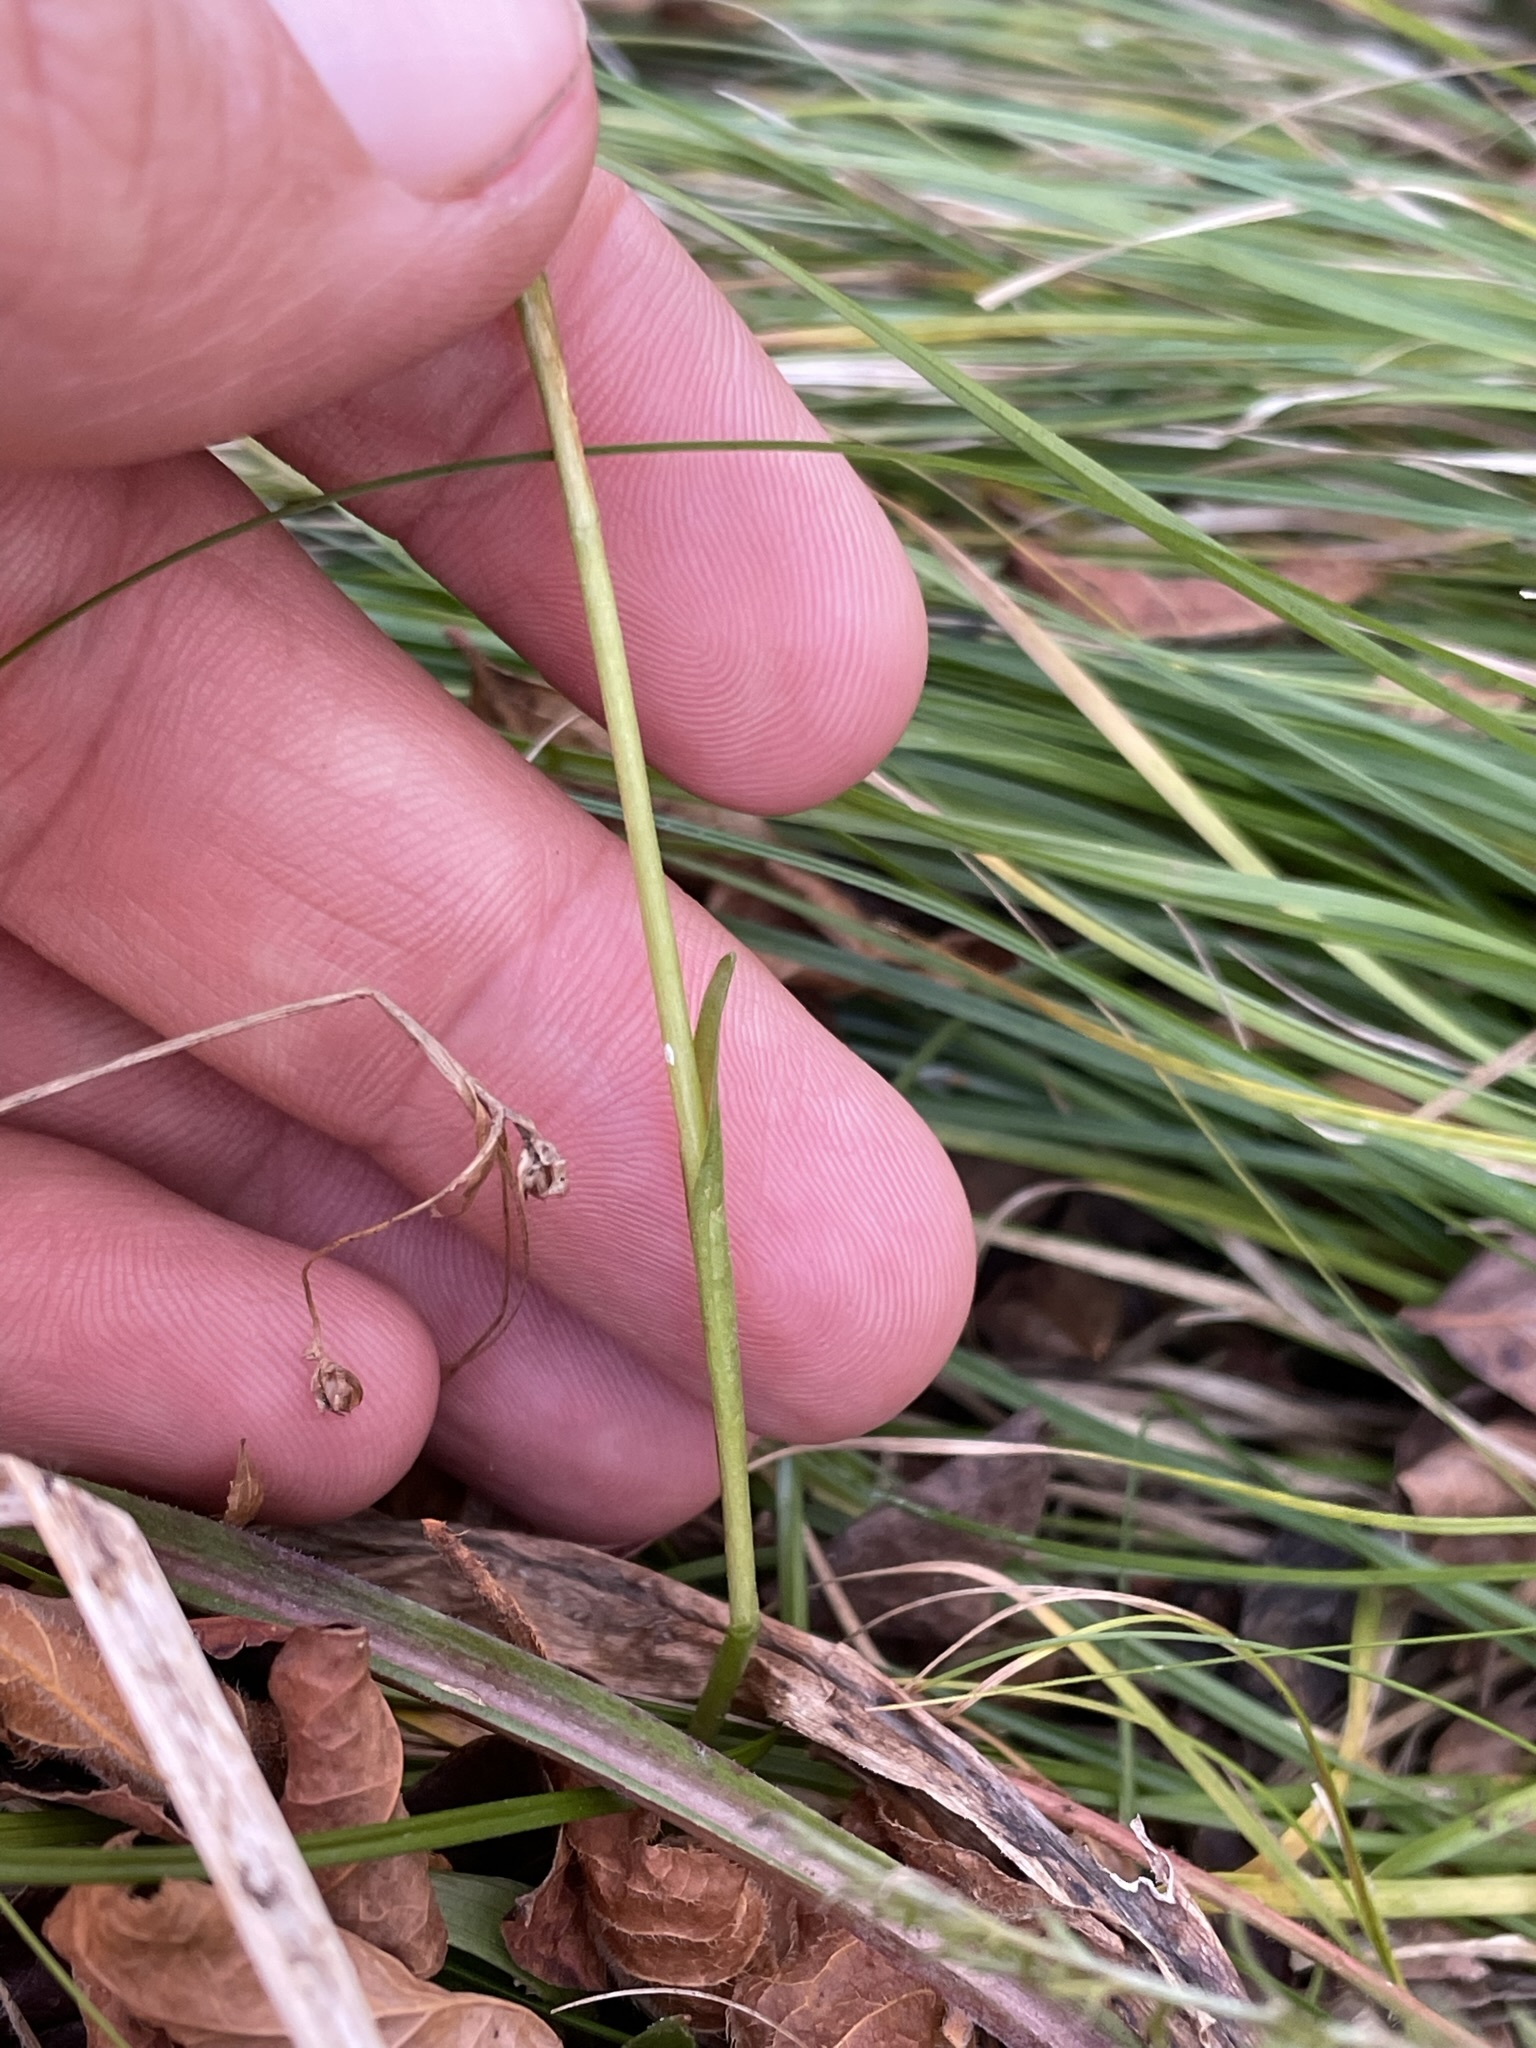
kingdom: Plantae
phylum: Tracheophyta
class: Liliopsida
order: Asparagales
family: Orchidaceae
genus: Spiranthes
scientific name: Spiranthes ochroleuca
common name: Yellow ladies'-tresses
